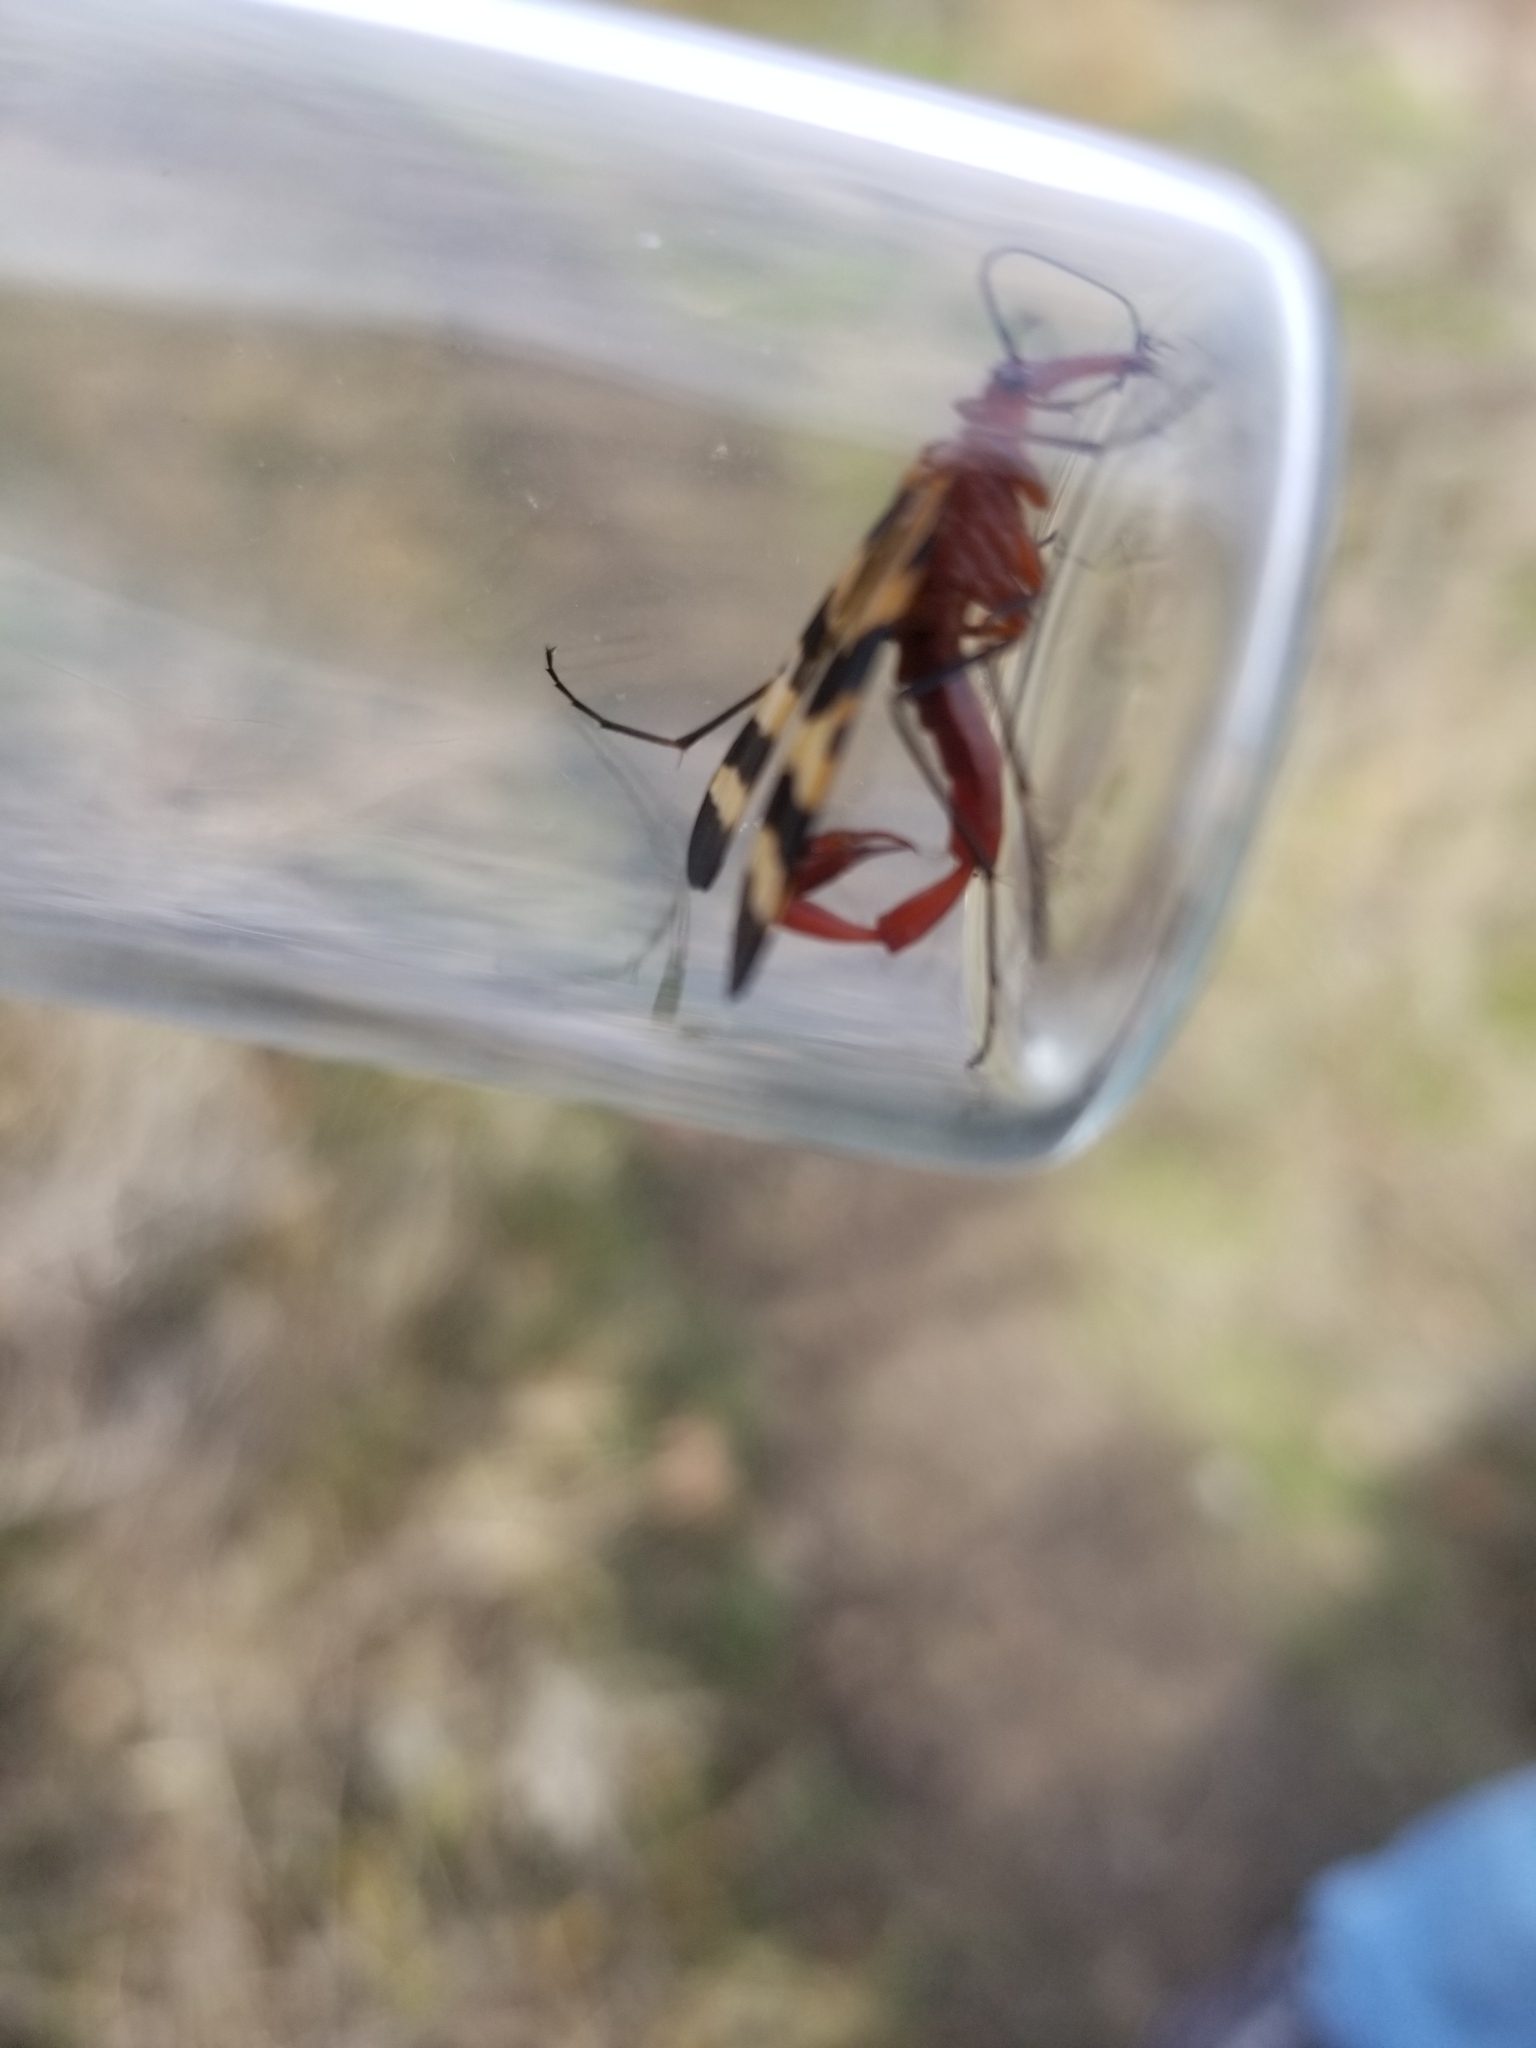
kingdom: Animalia
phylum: Arthropoda
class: Insecta
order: Mecoptera
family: Panorpidae
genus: Panorpa
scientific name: Panorpa nuptialis
